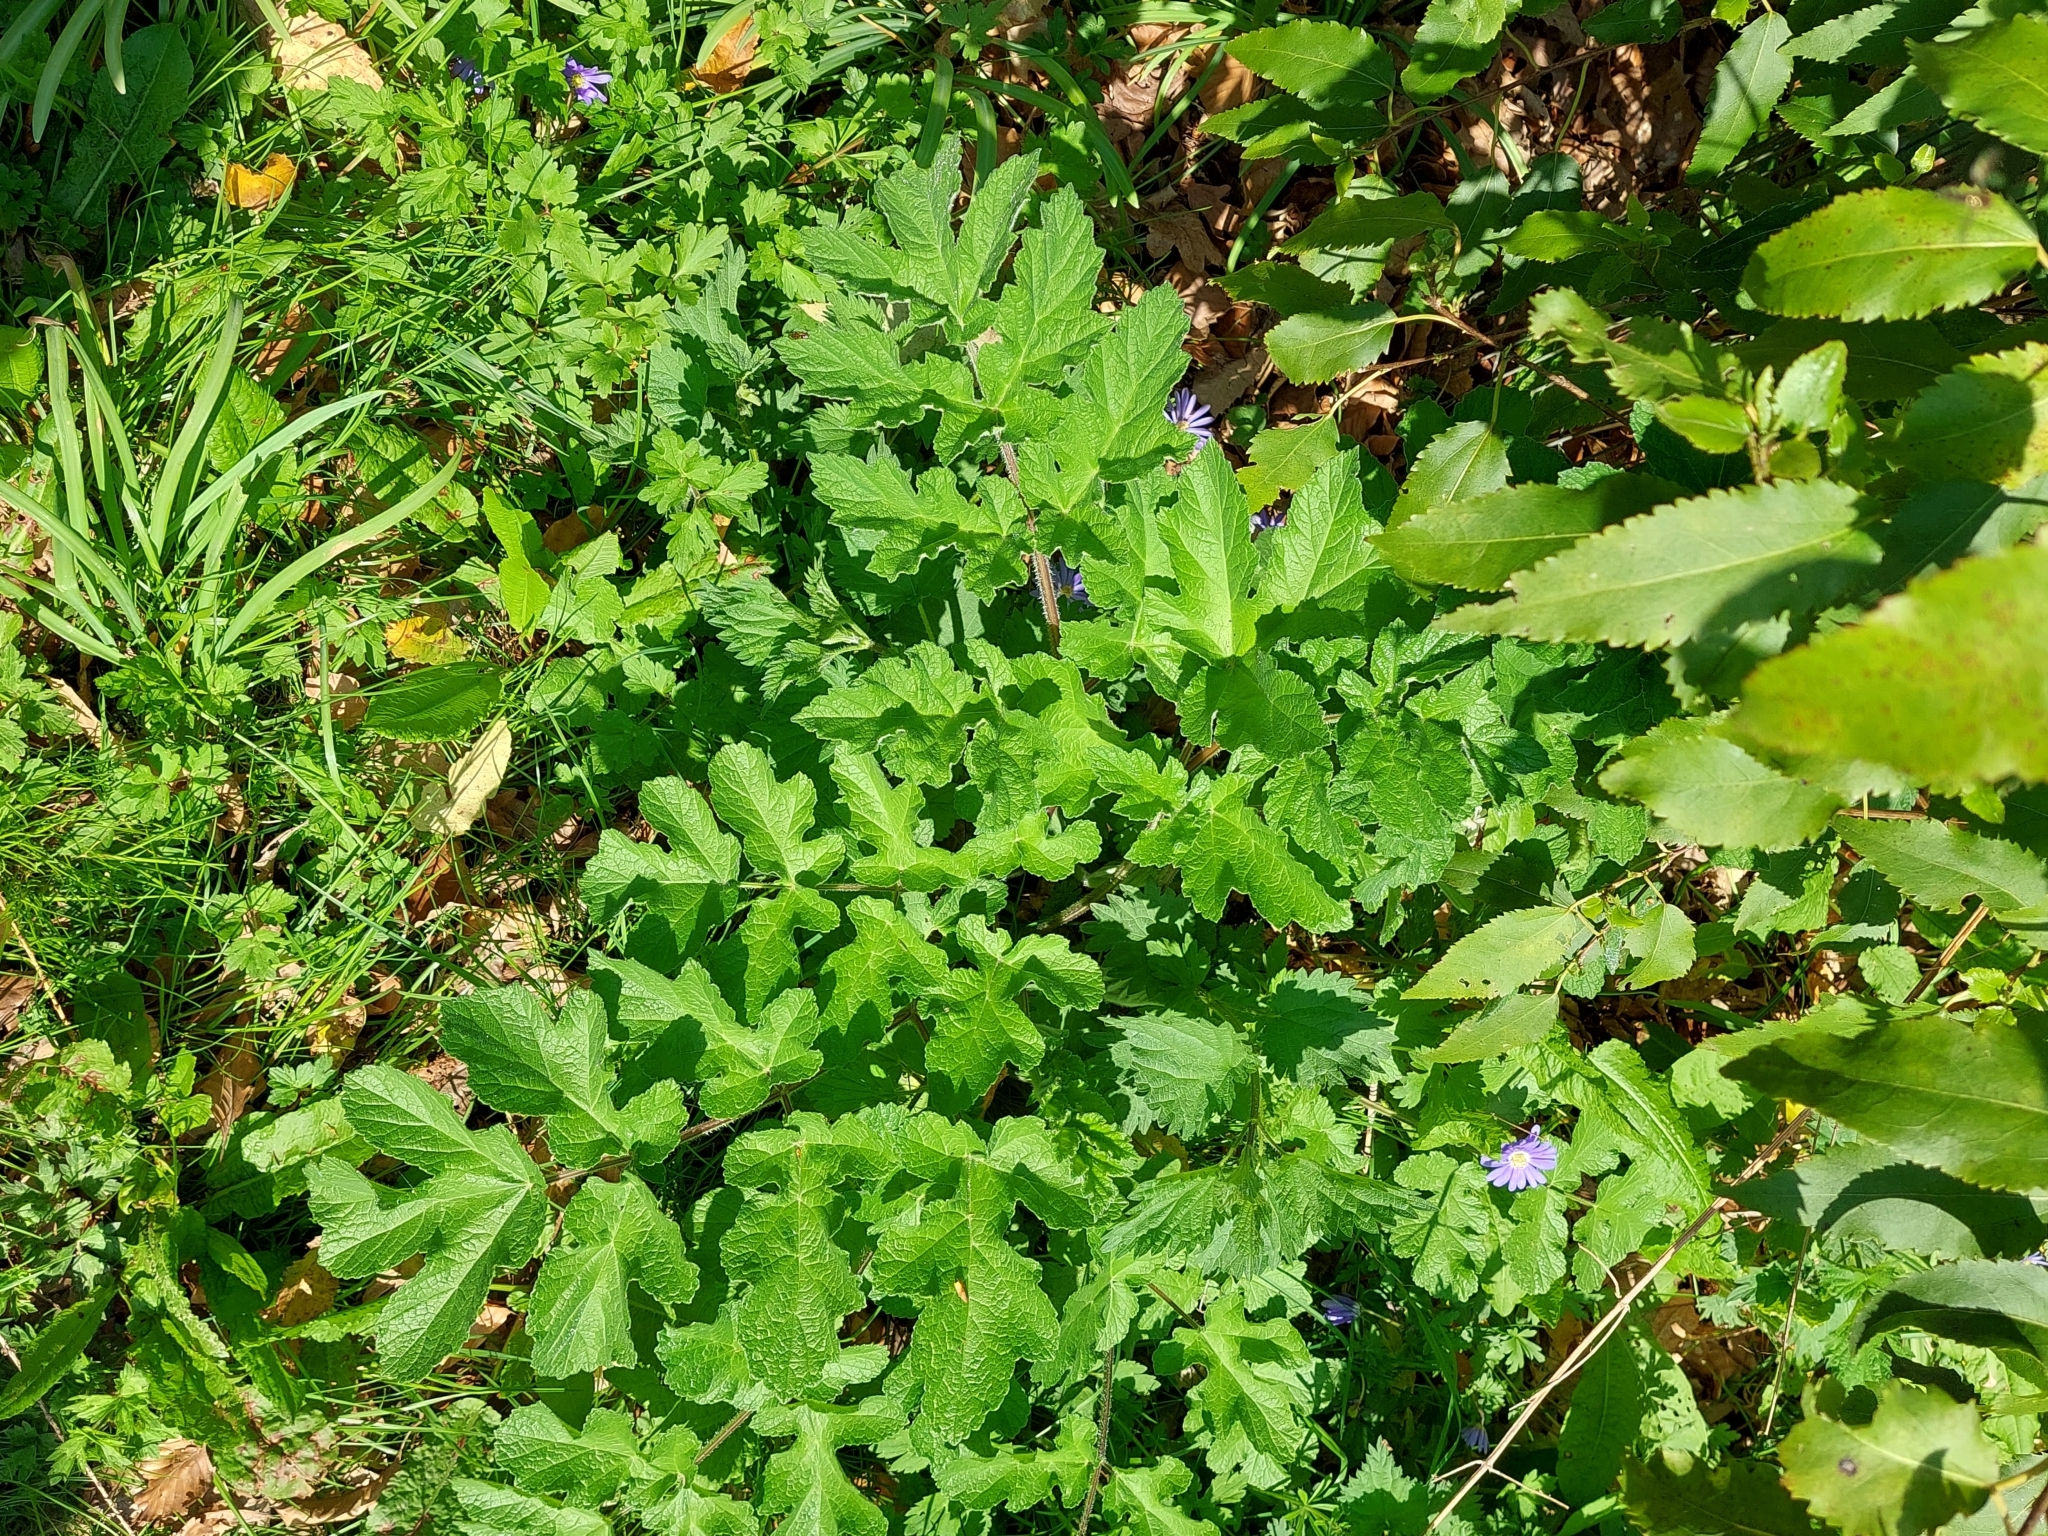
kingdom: Plantae
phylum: Tracheophyta
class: Magnoliopsida
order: Apiales
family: Apiaceae
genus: Heracleum
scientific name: Heracleum sphondylium
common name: Hogweed
